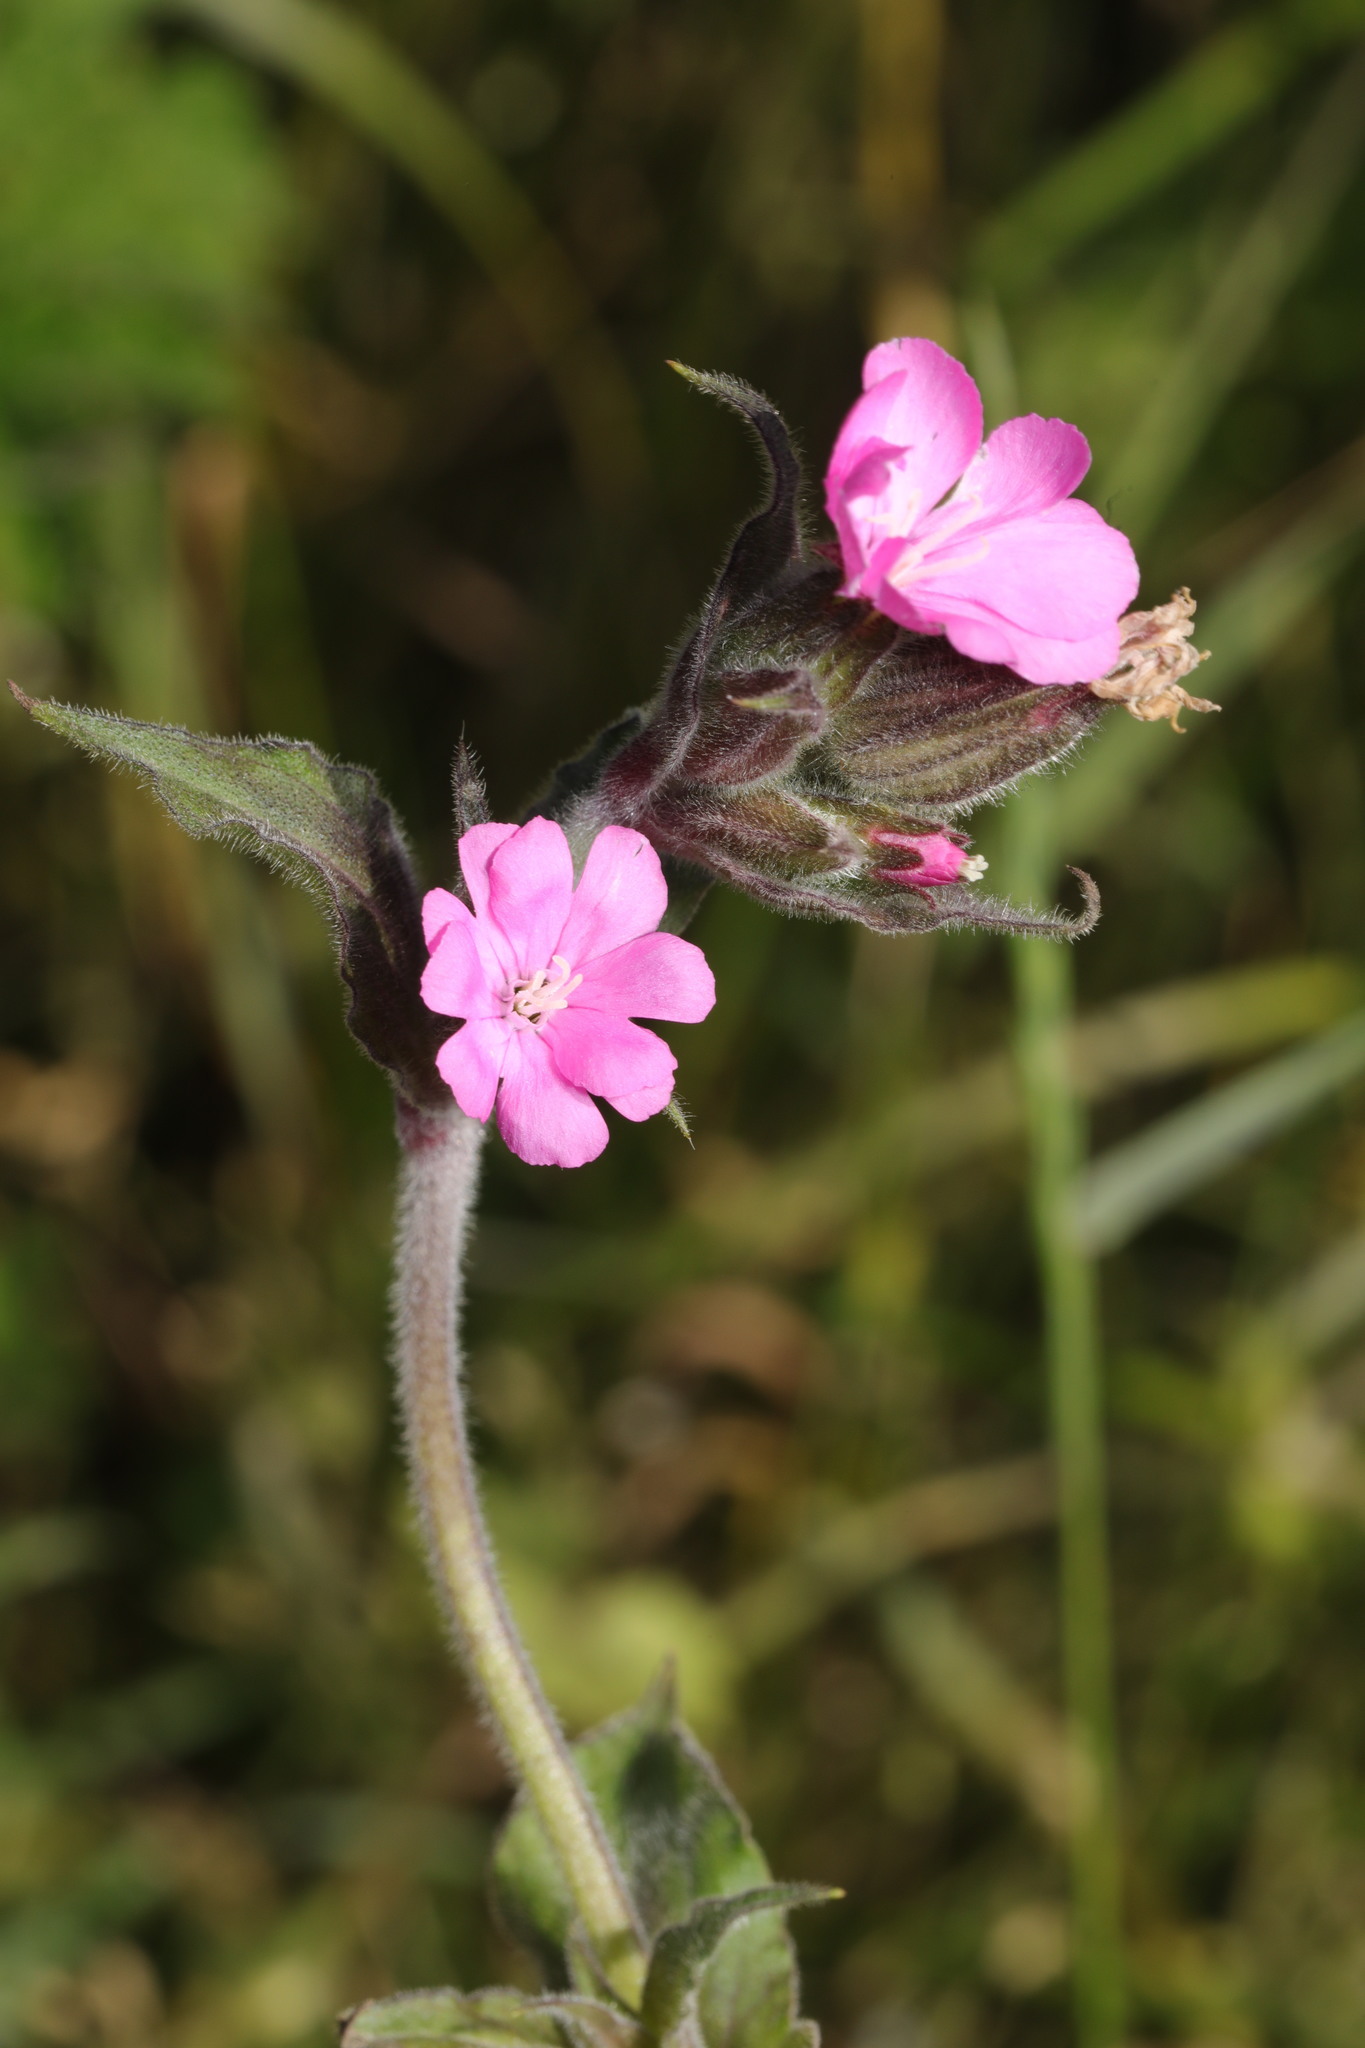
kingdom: Plantae
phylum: Tracheophyta
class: Magnoliopsida
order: Caryophyllales
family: Caryophyllaceae
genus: Silene
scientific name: Silene dioica
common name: Red campion
